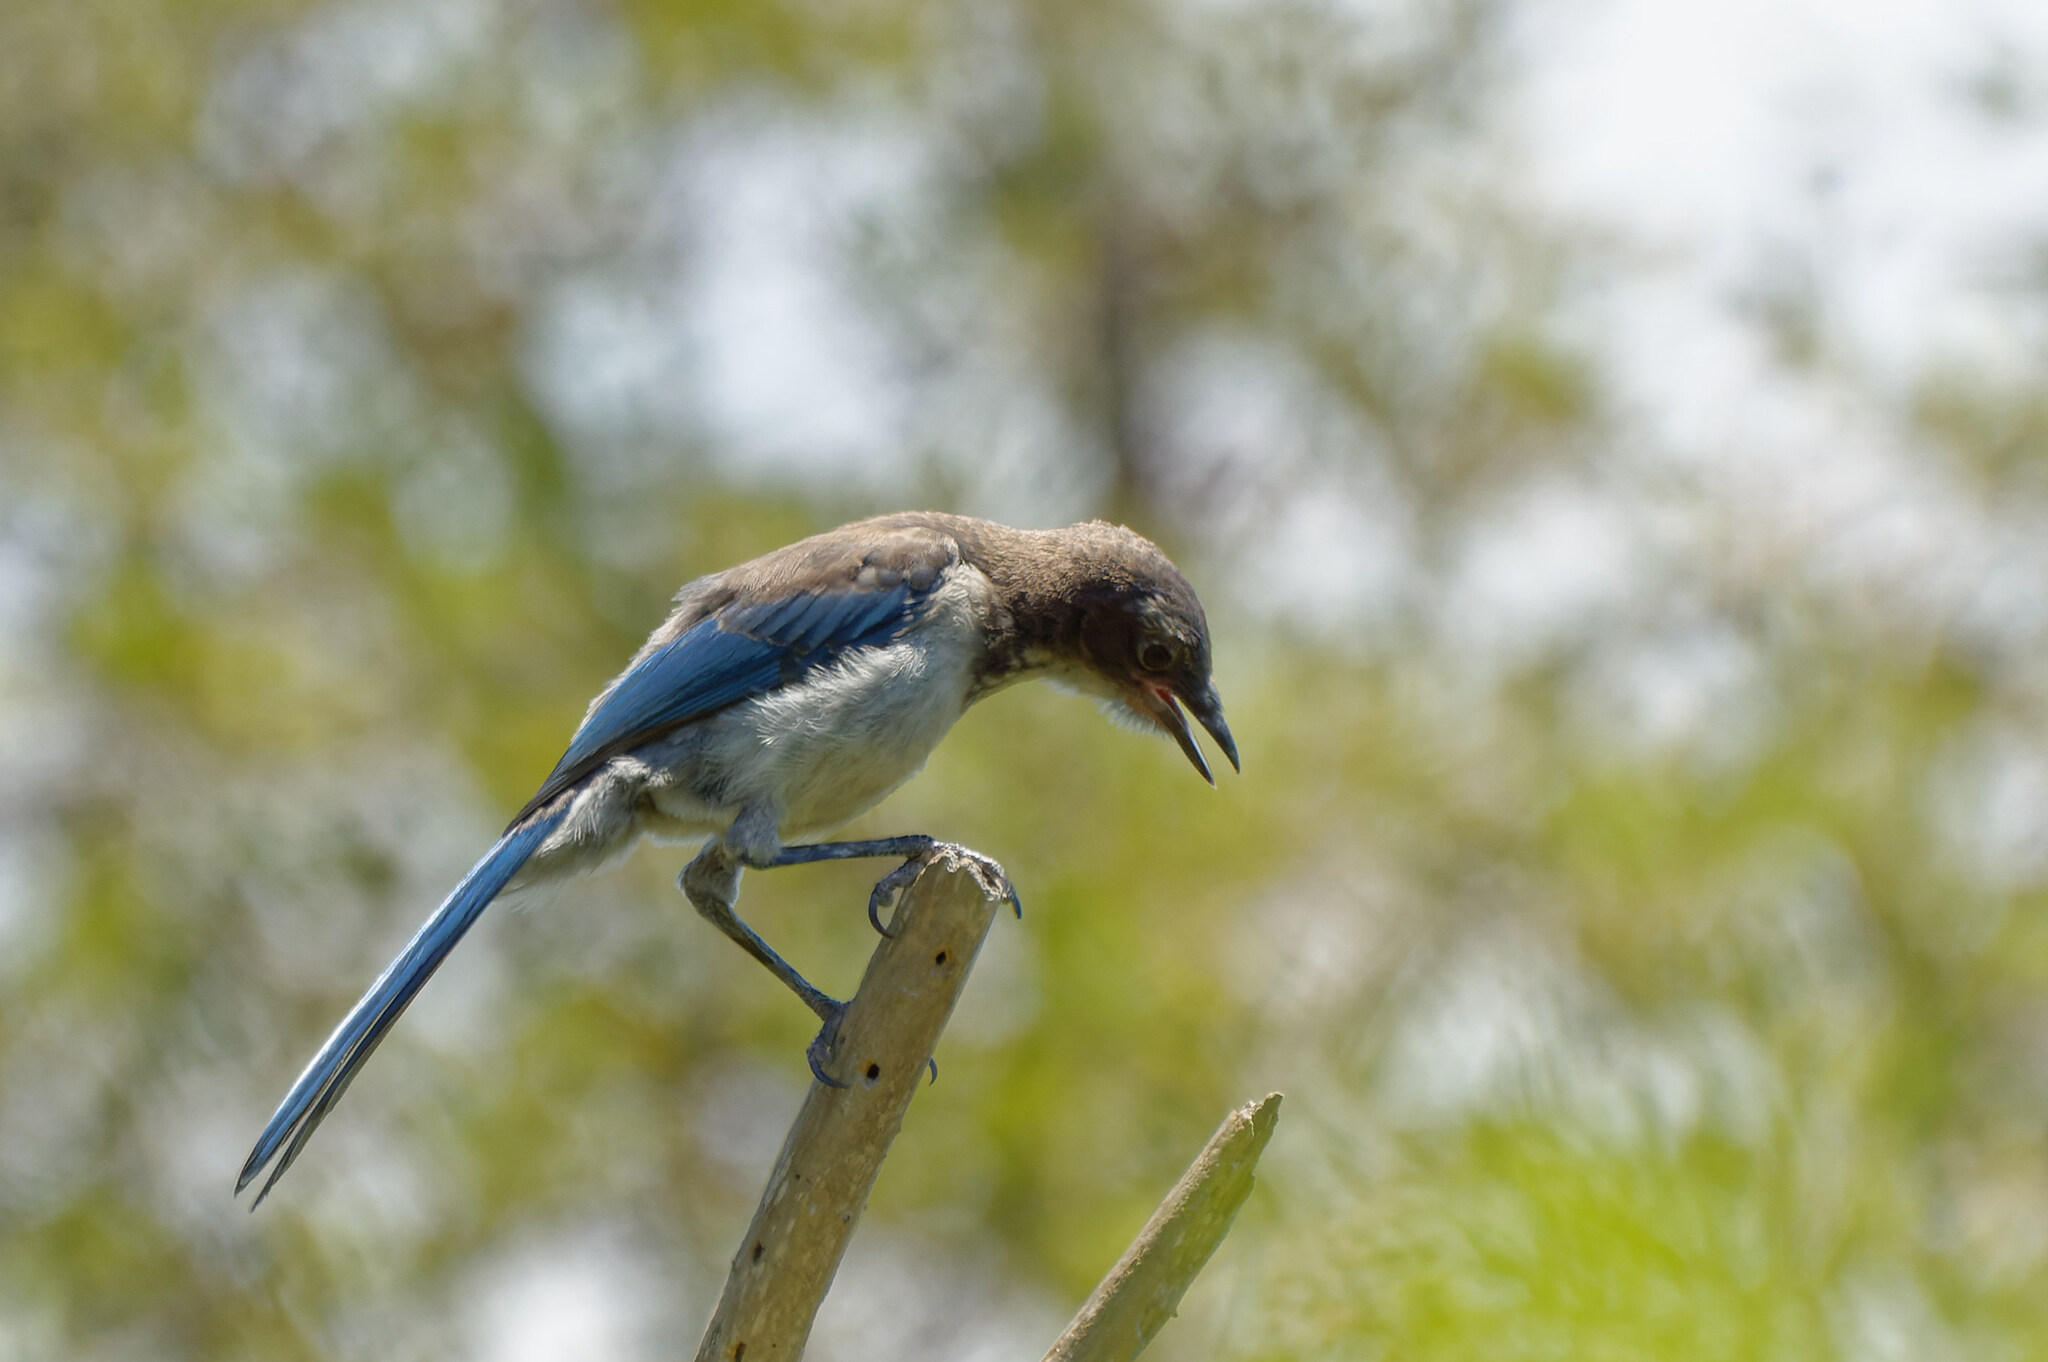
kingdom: Animalia
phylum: Chordata
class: Aves
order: Passeriformes
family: Corvidae
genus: Aphelocoma
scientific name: Aphelocoma californica
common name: California scrub-jay
